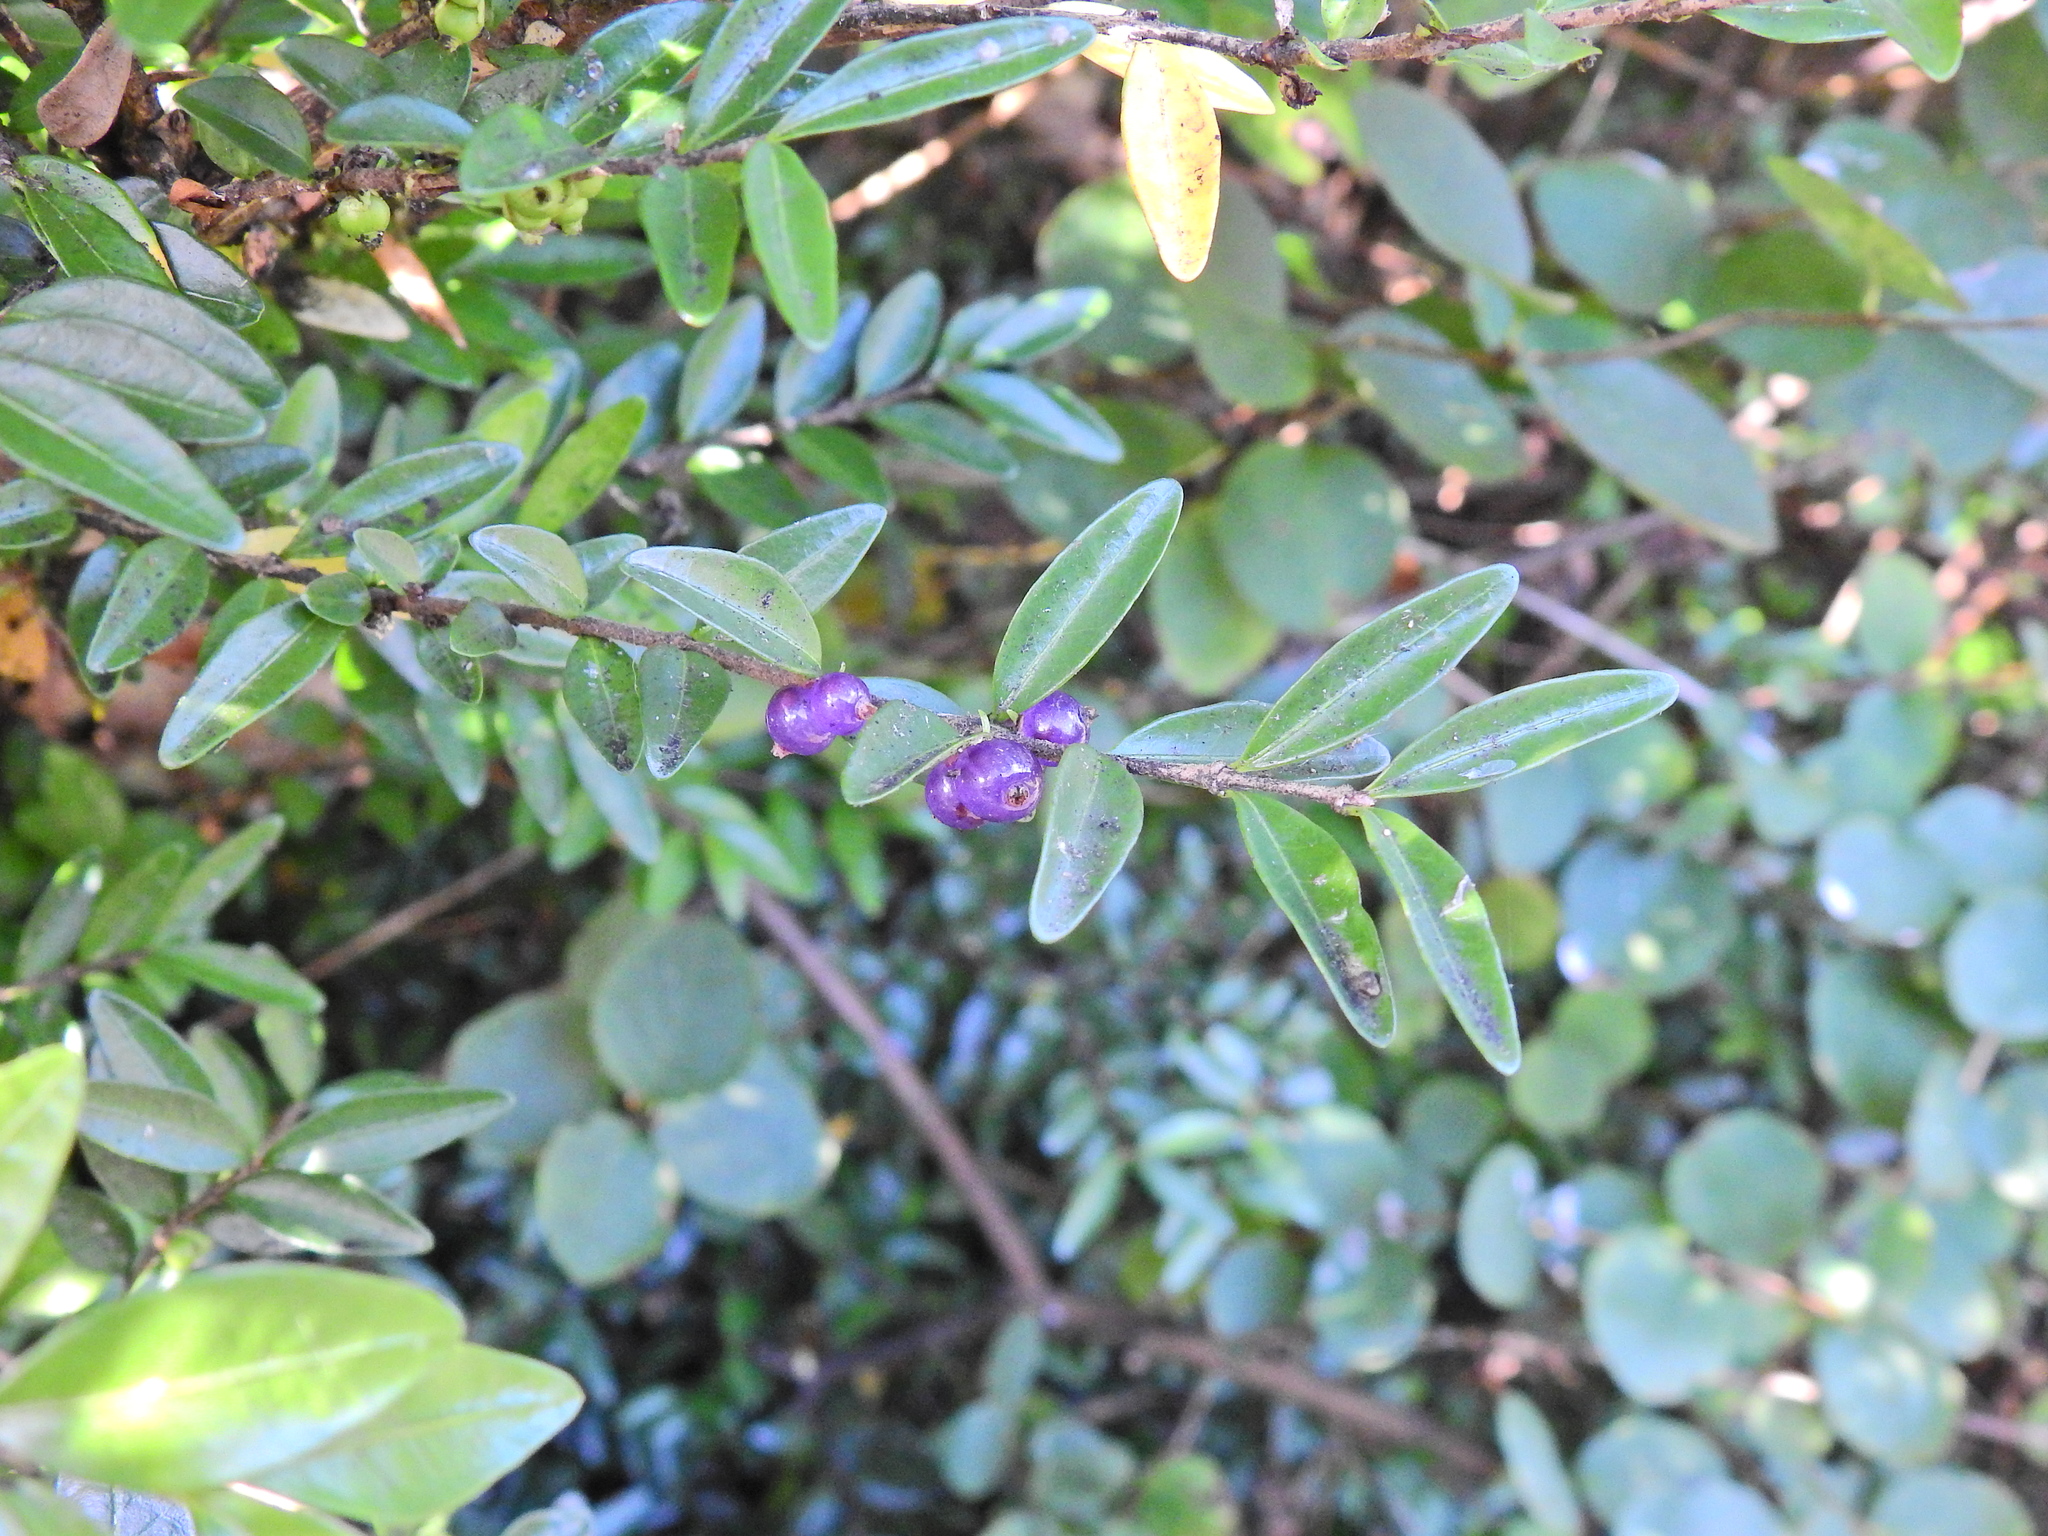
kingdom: Plantae
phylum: Tracheophyta
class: Magnoliopsida
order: Dipsacales
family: Caprifoliaceae
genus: Lonicera
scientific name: Lonicera ligustrina
